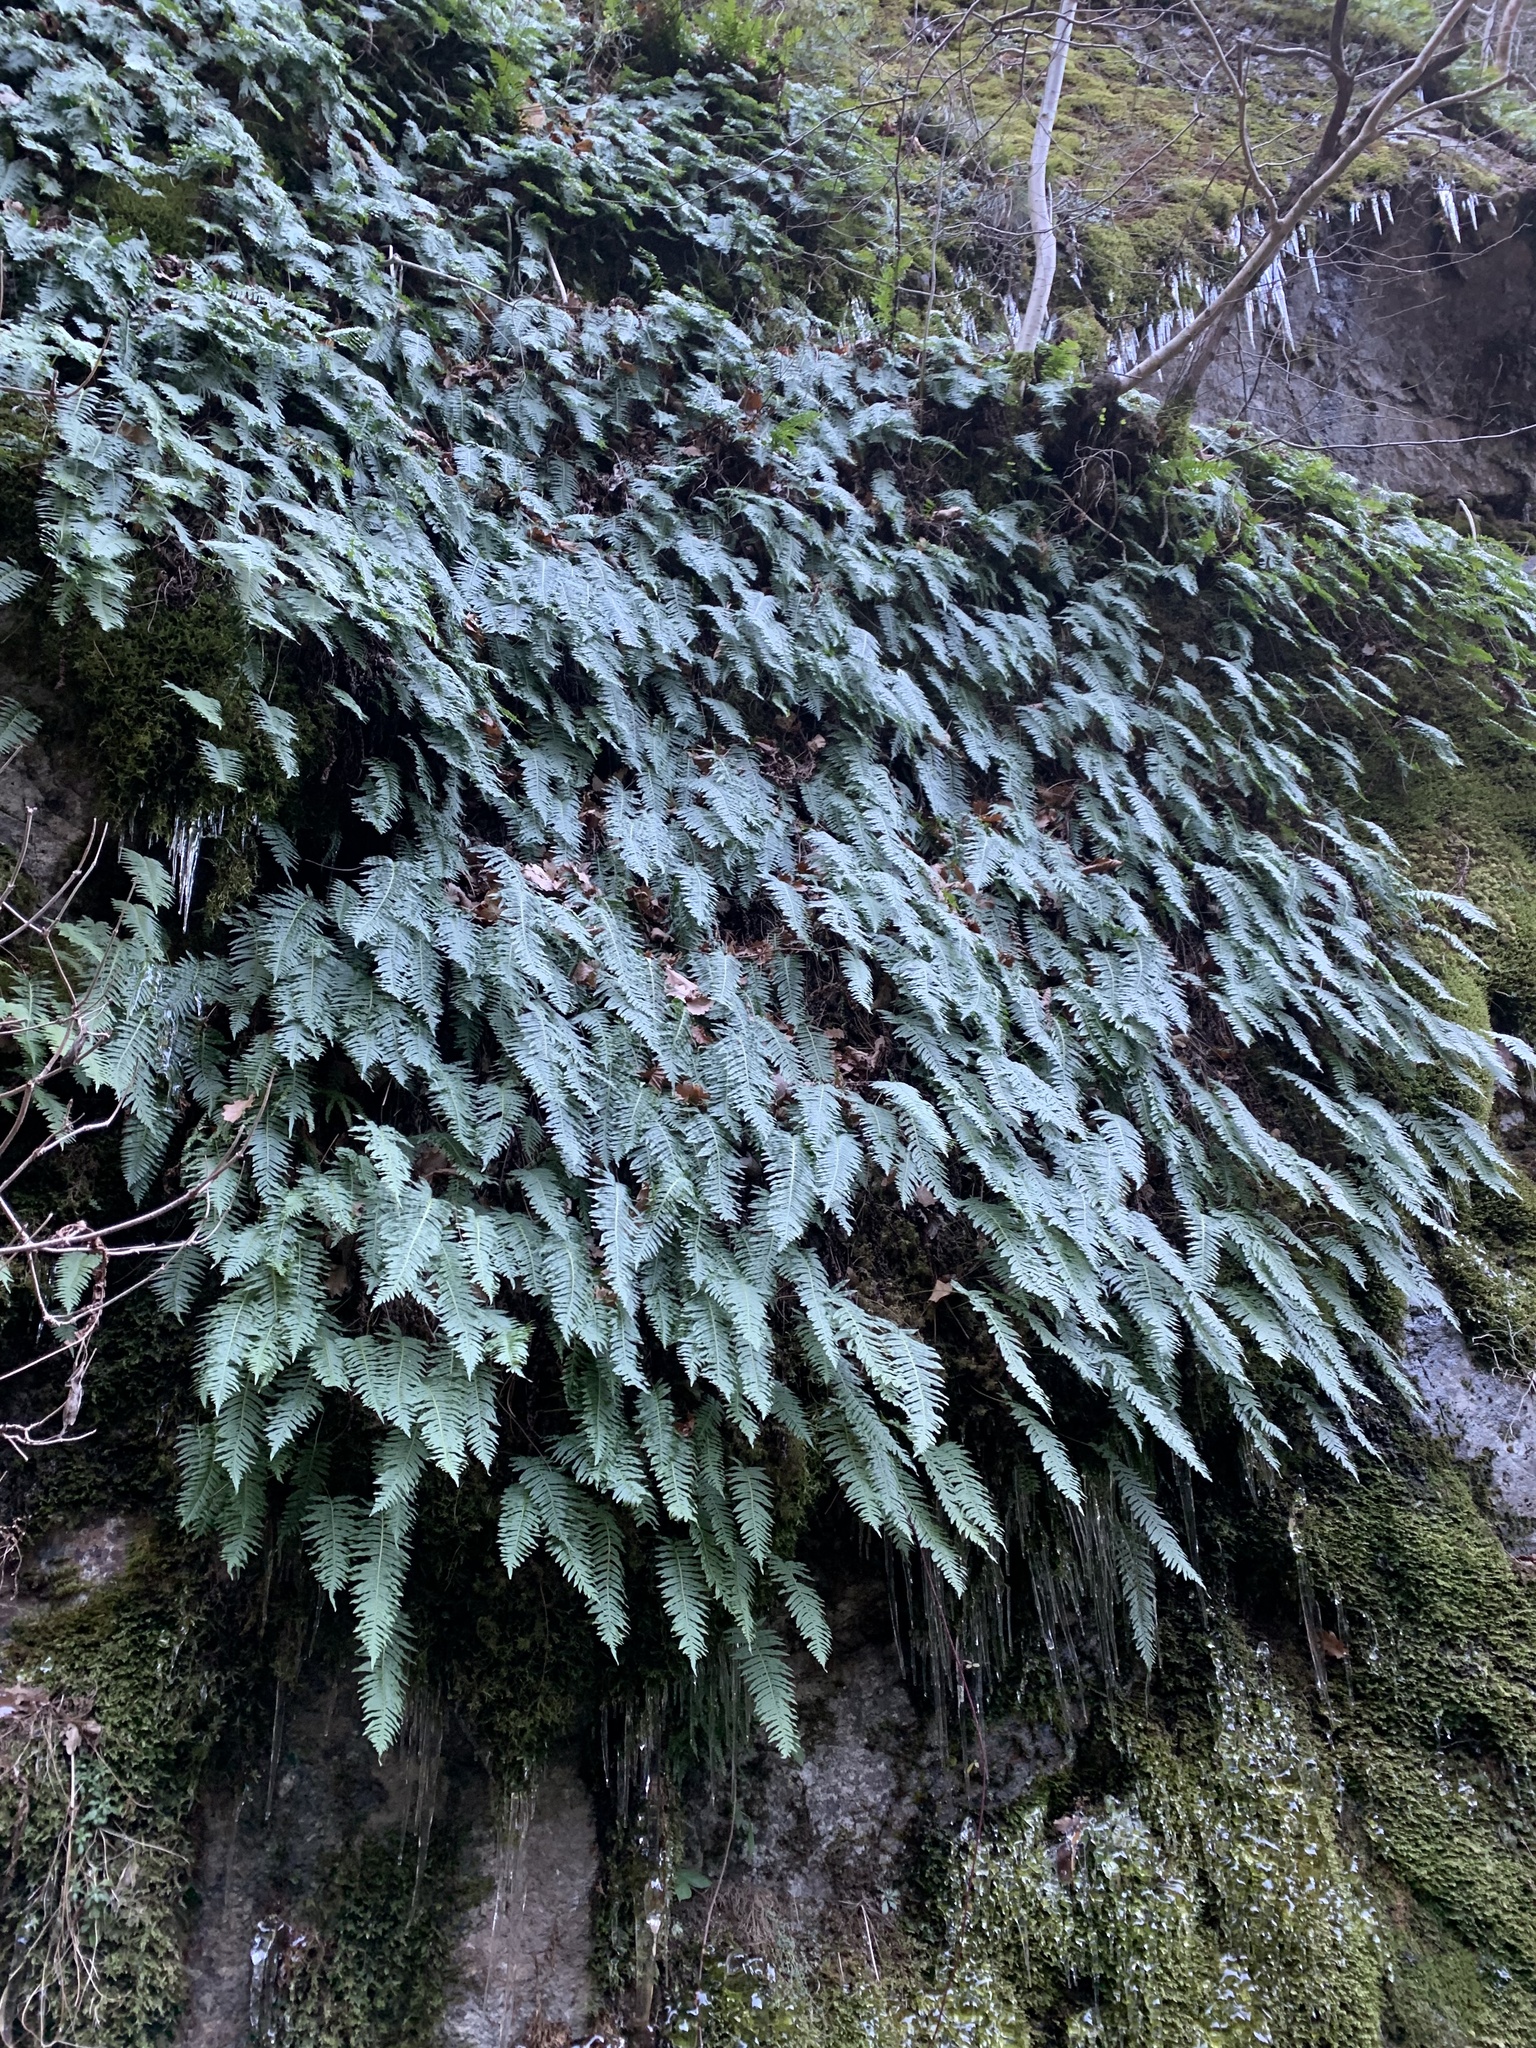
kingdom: Plantae
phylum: Tracheophyta
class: Polypodiopsida
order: Polypodiales
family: Polypodiaceae
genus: Polypodium
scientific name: Polypodium interjectum
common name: Intermediate polypody
